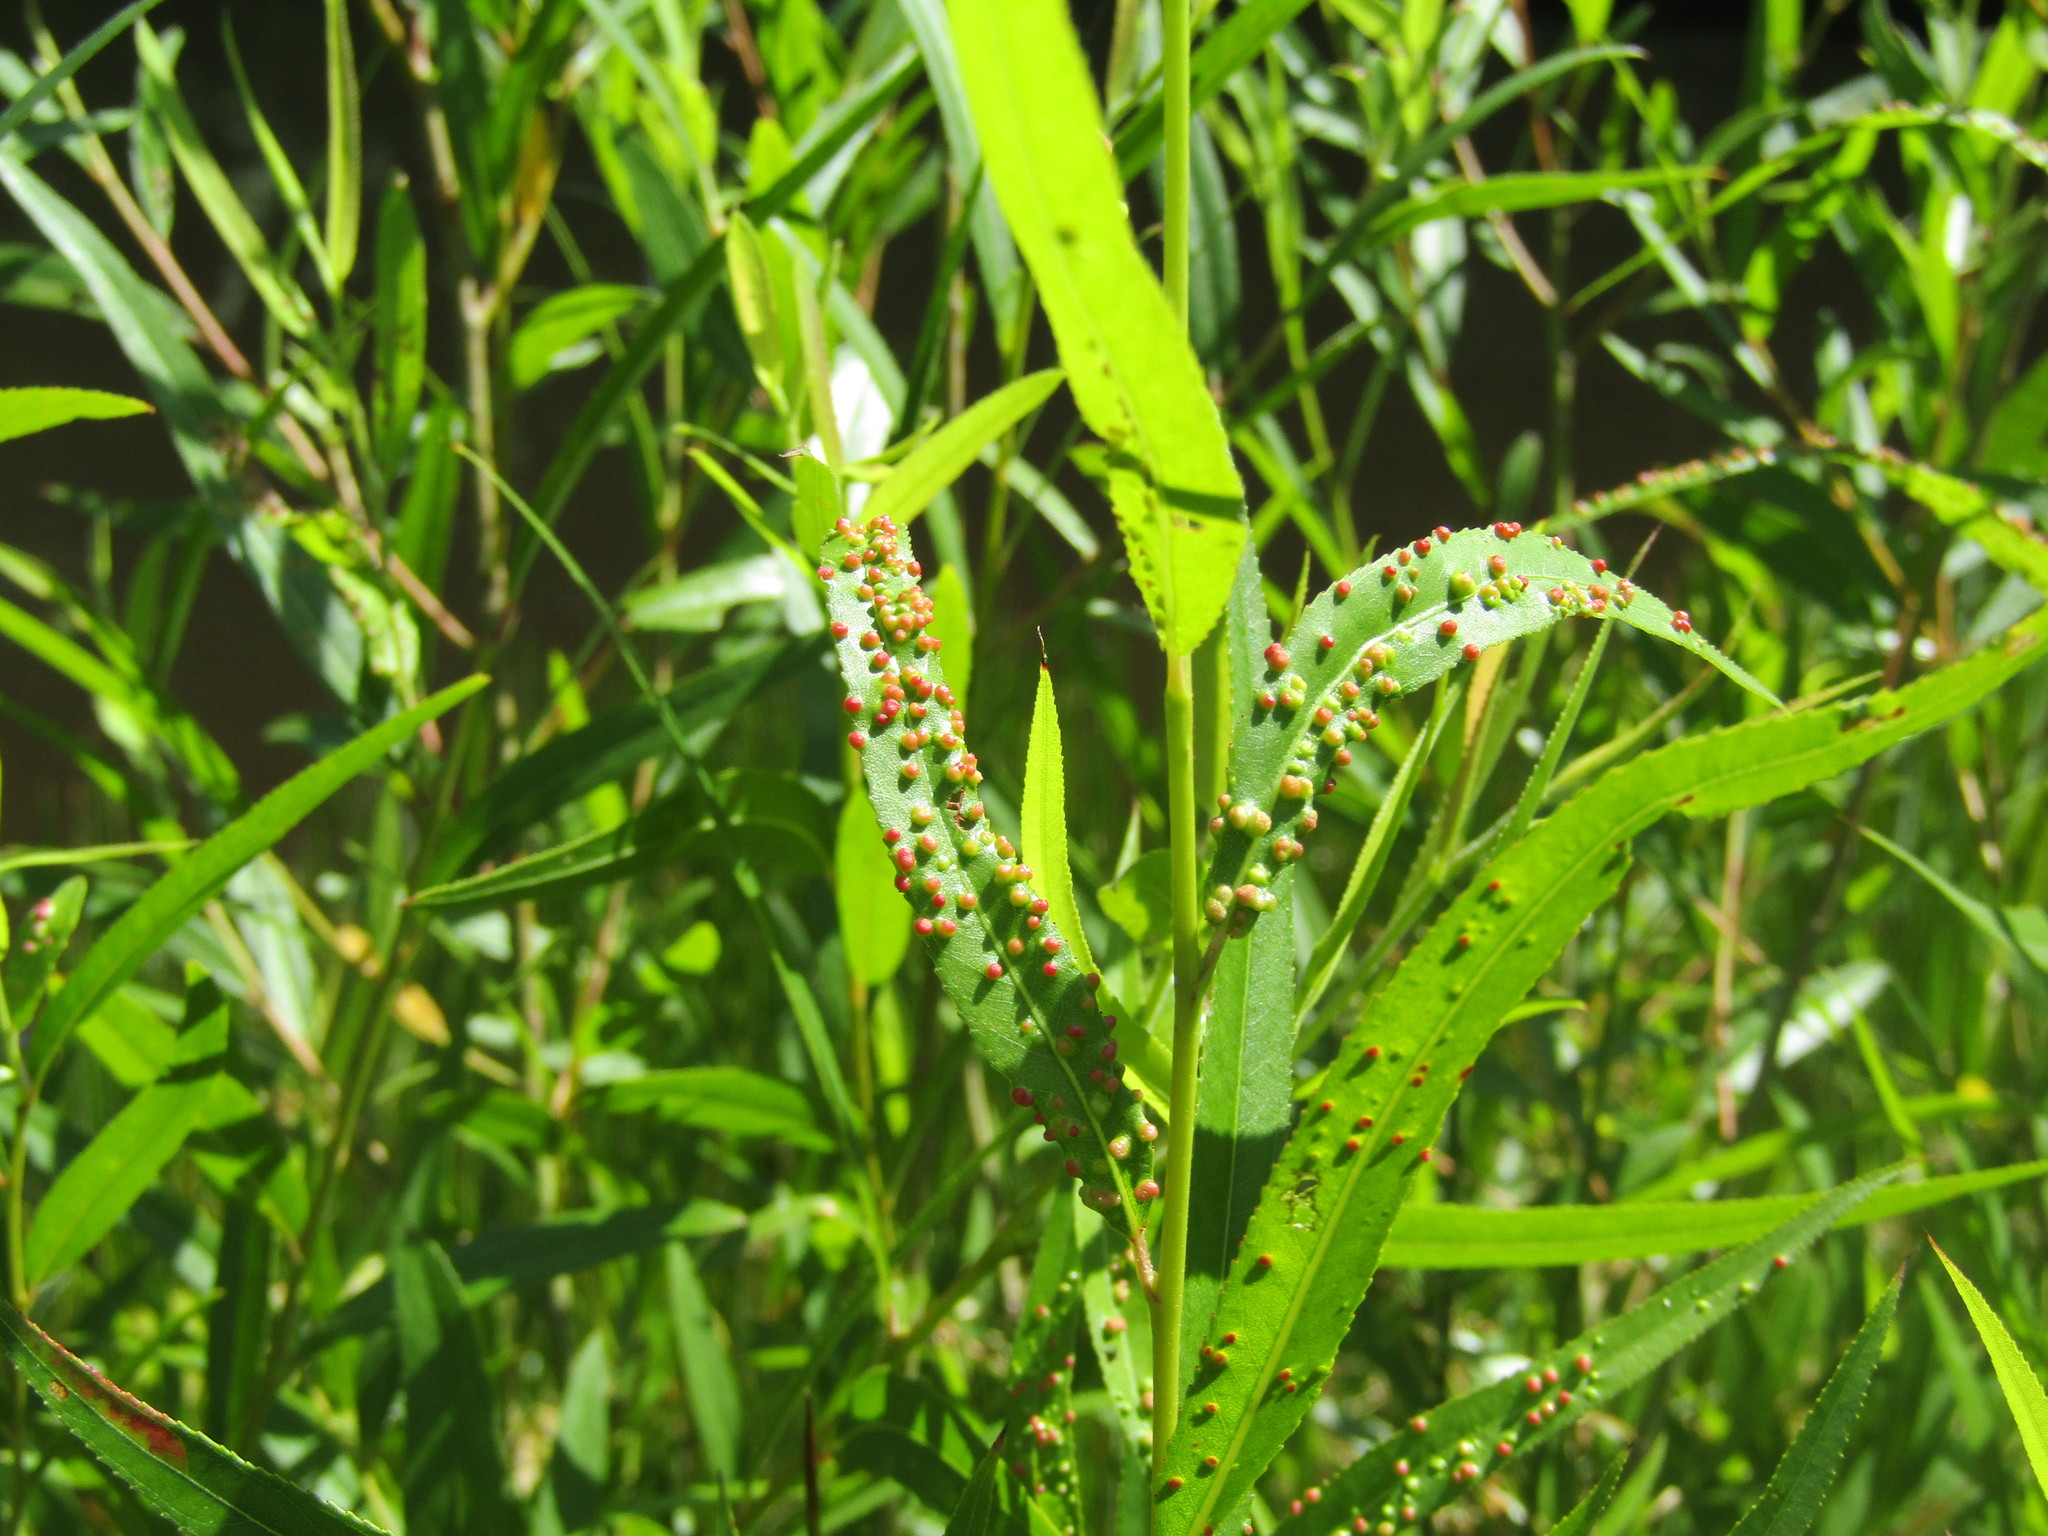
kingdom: Animalia
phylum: Arthropoda
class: Arachnida
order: Trombidiformes
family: Eriophyidae
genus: Aculus
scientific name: Aculus tetanothrix
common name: Willow bead gall mite
